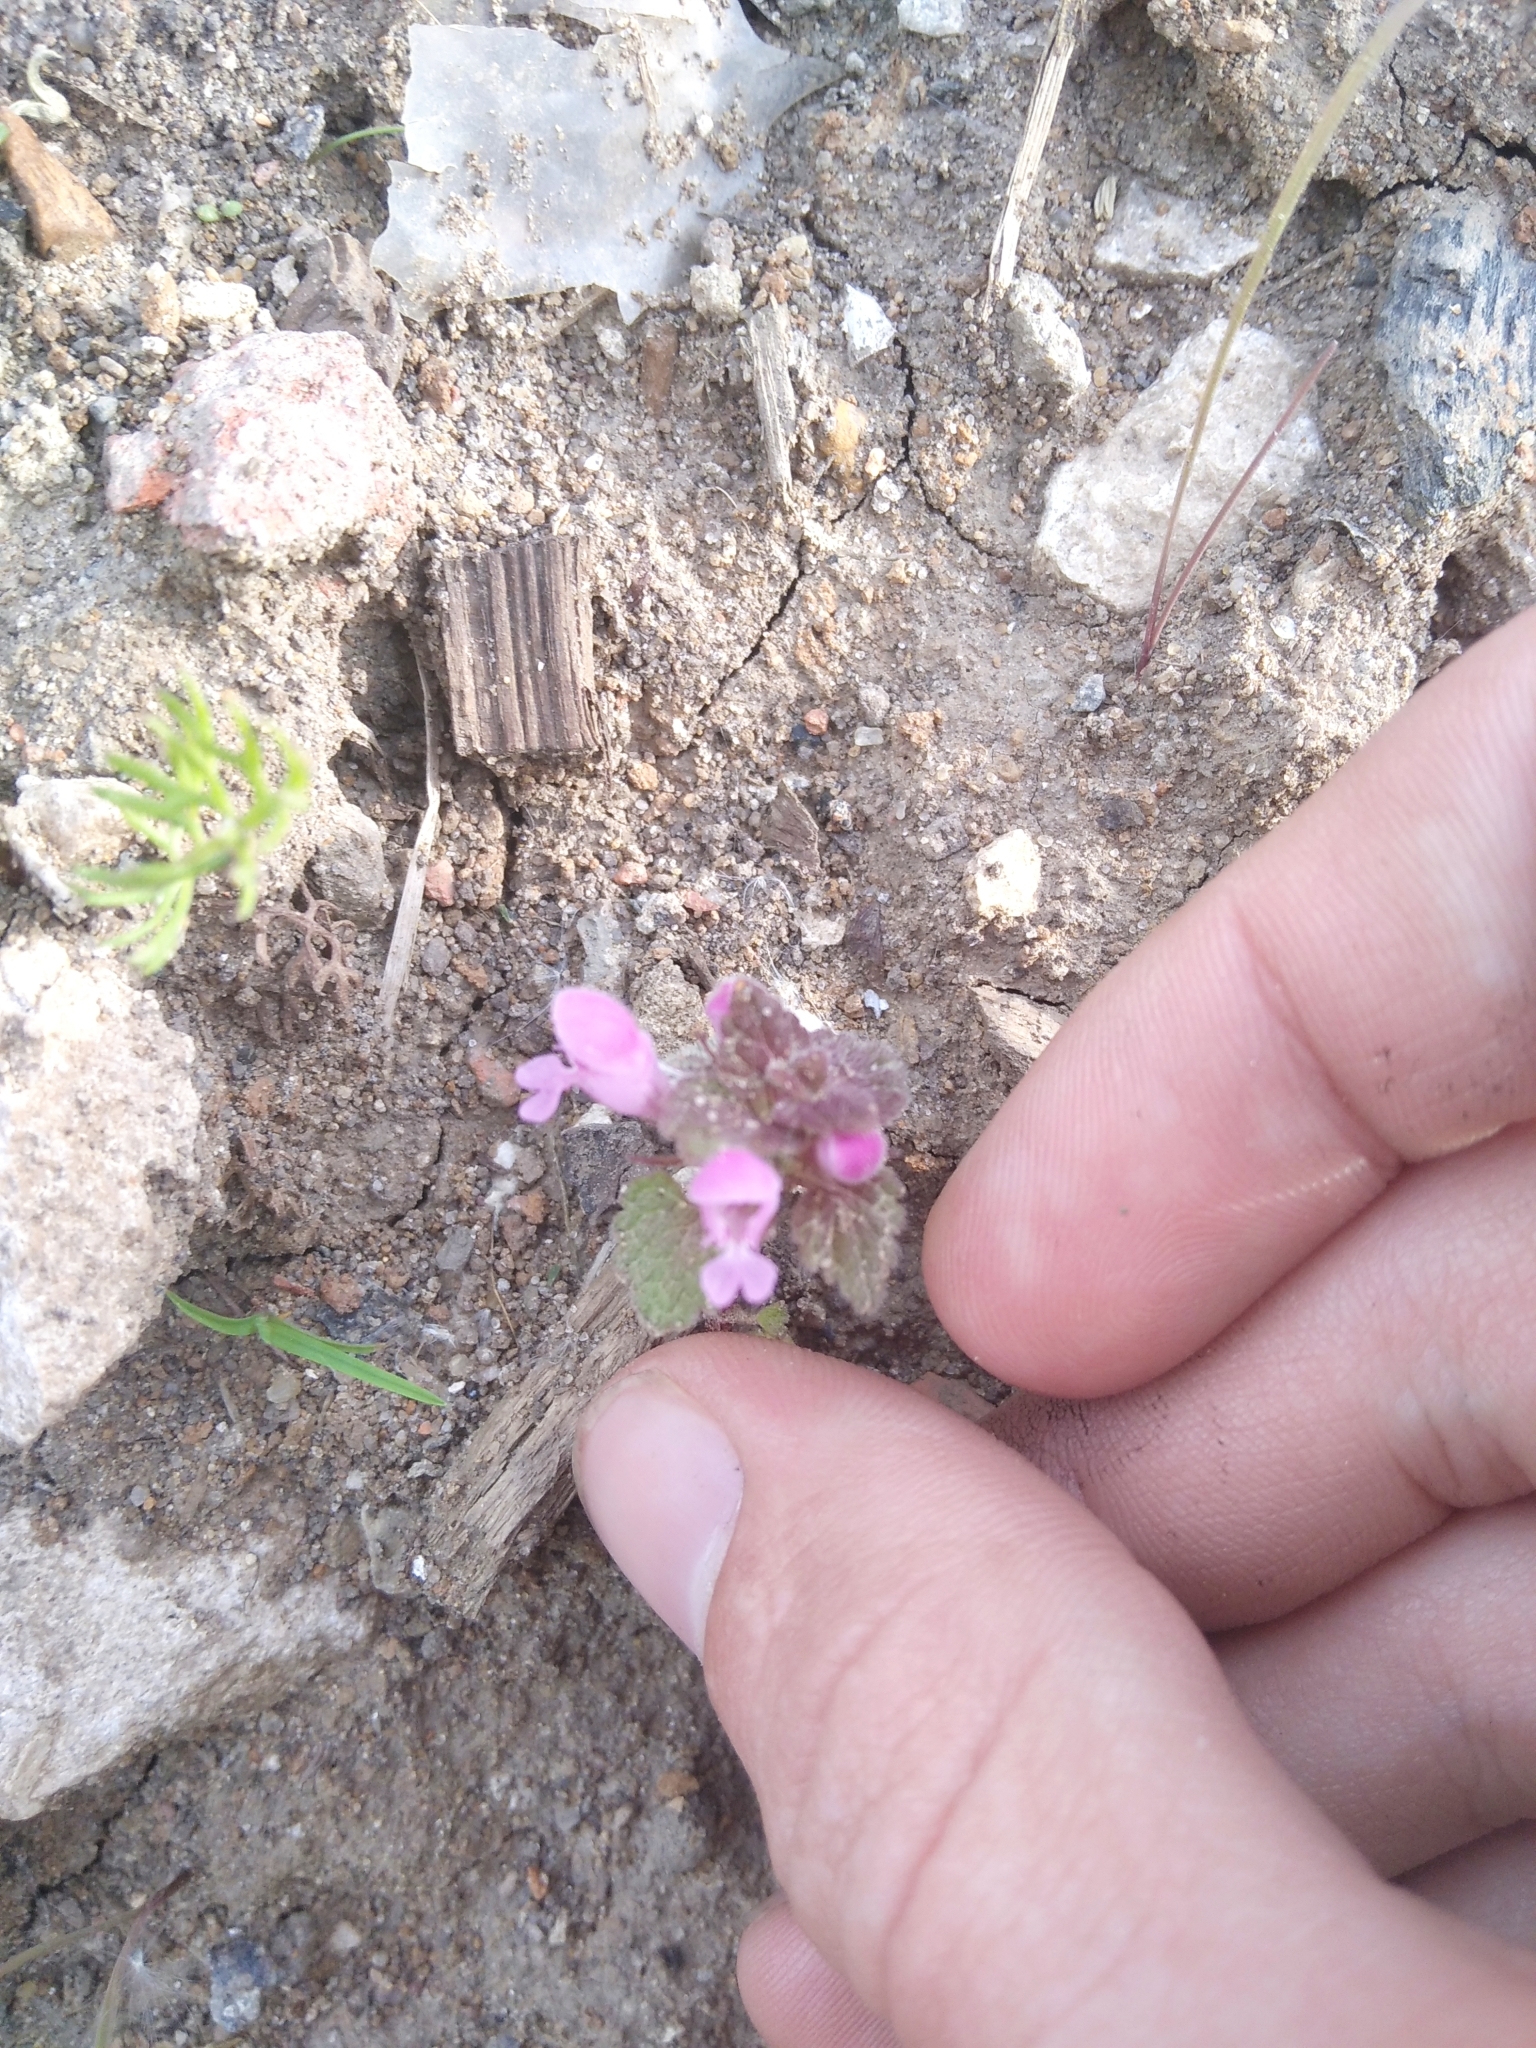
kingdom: Plantae
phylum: Tracheophyta
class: Magnoliopsida
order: Lamiales
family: Lamiaceae
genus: Lamium
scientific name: Lamium purpureum
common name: Red dead-nettle
